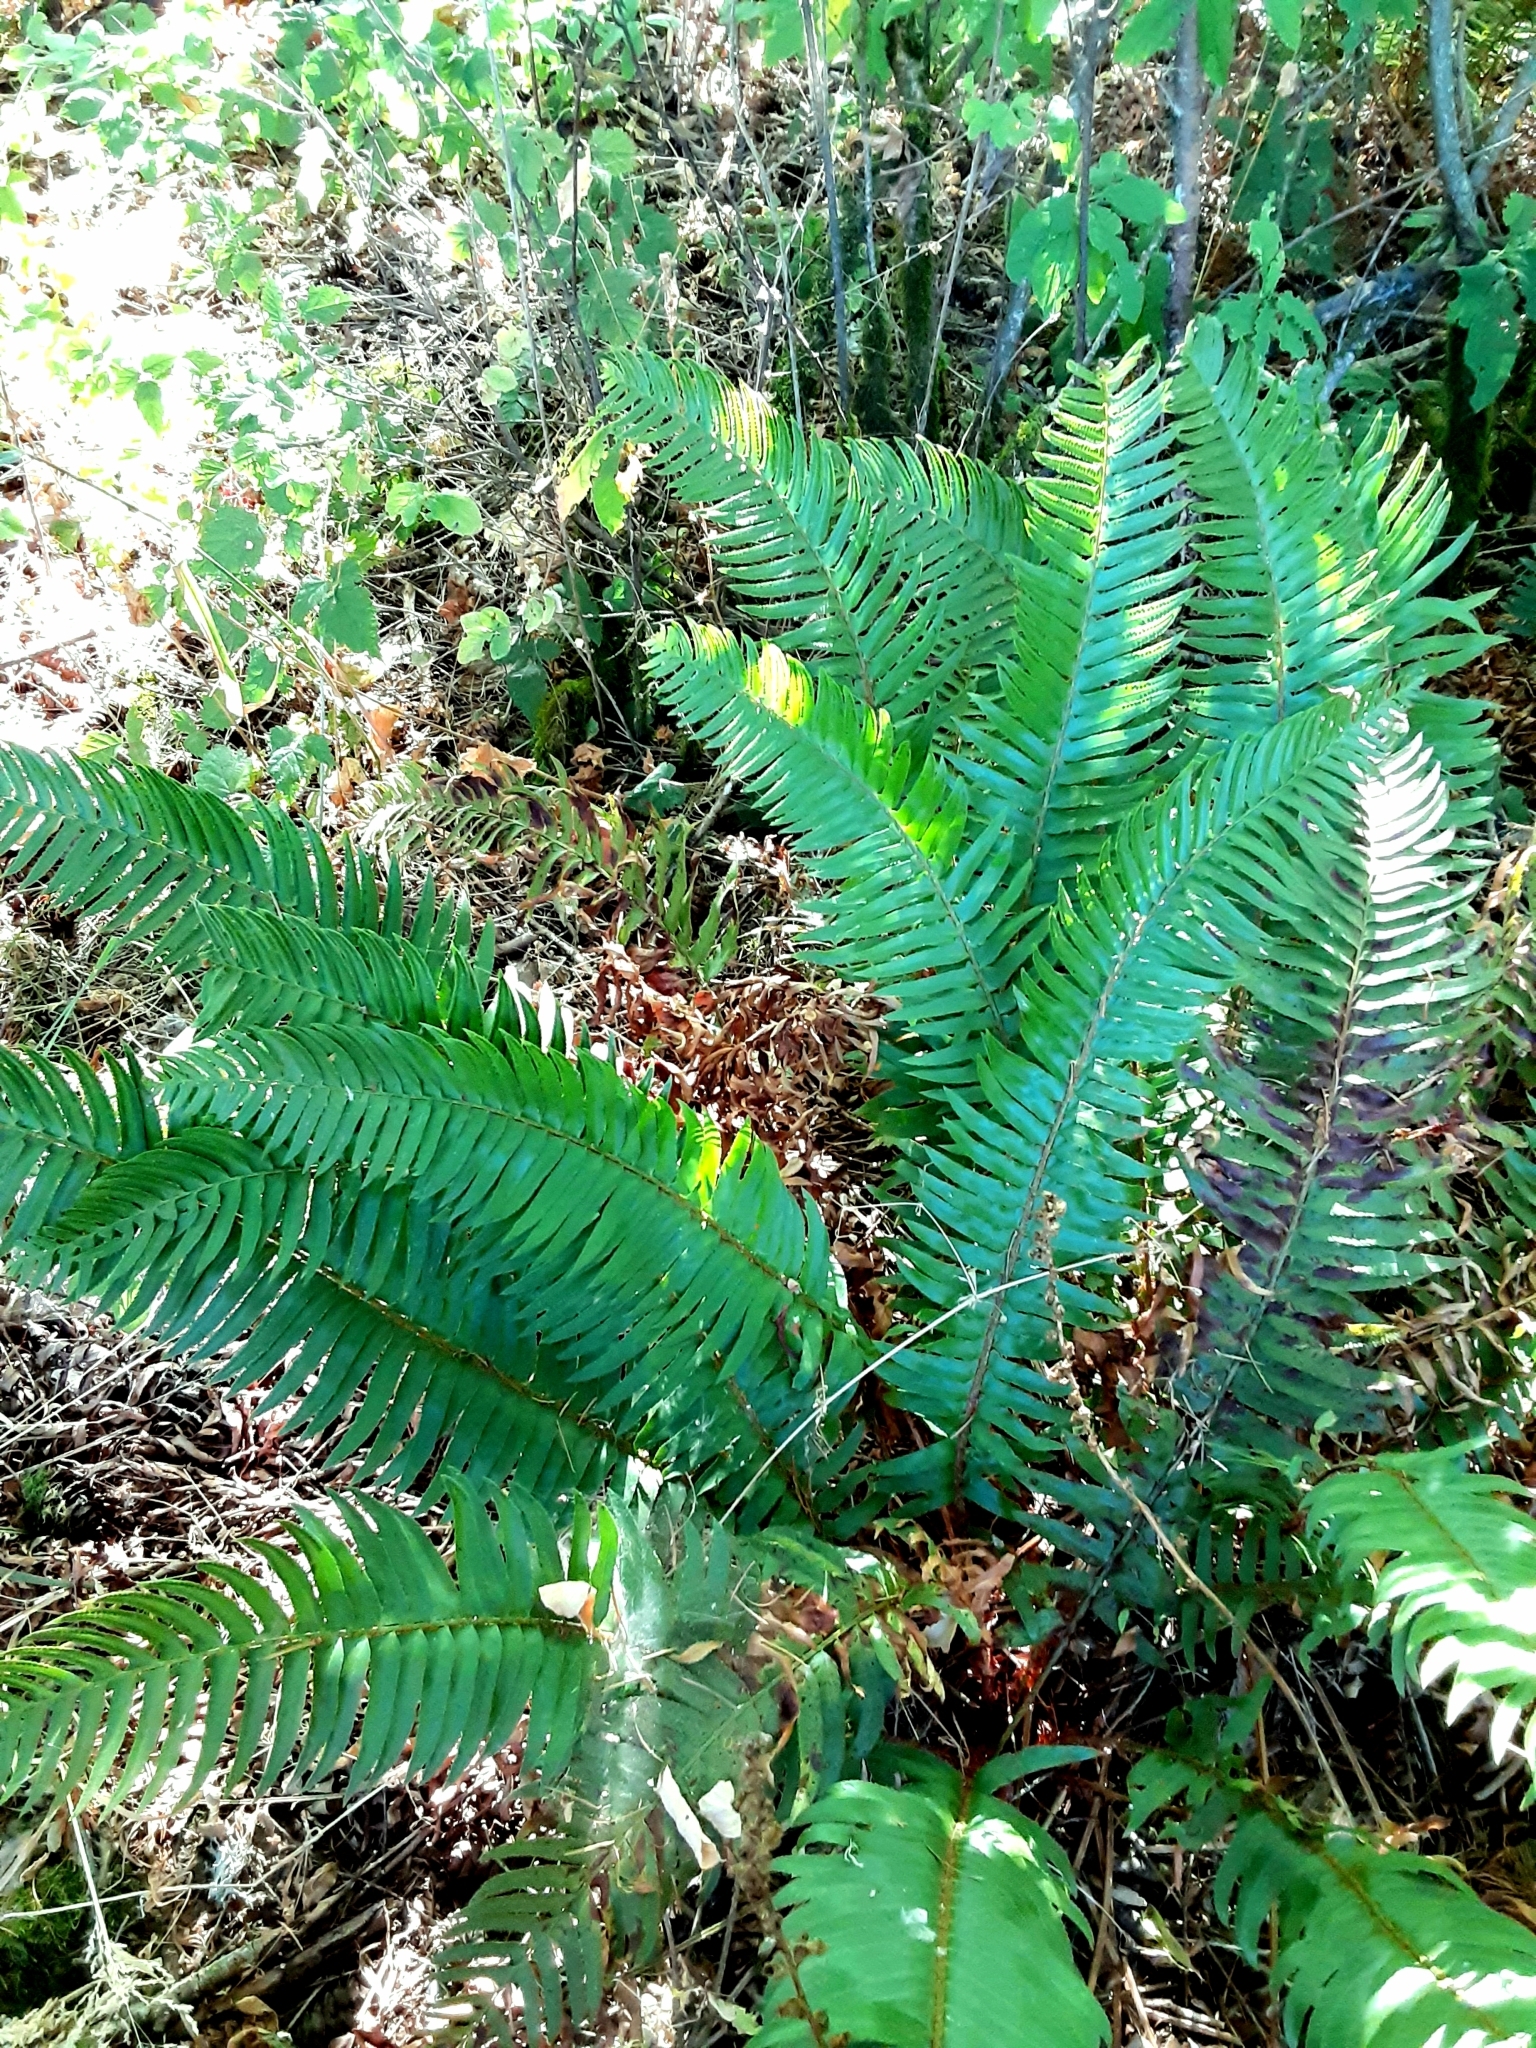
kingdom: Plantae
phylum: Tracheophyta
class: Polypodiopsida
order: Polypodiales
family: Dryopteridaceae
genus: Polystichum
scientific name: Polystichum munitum
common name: Western sword-fern
